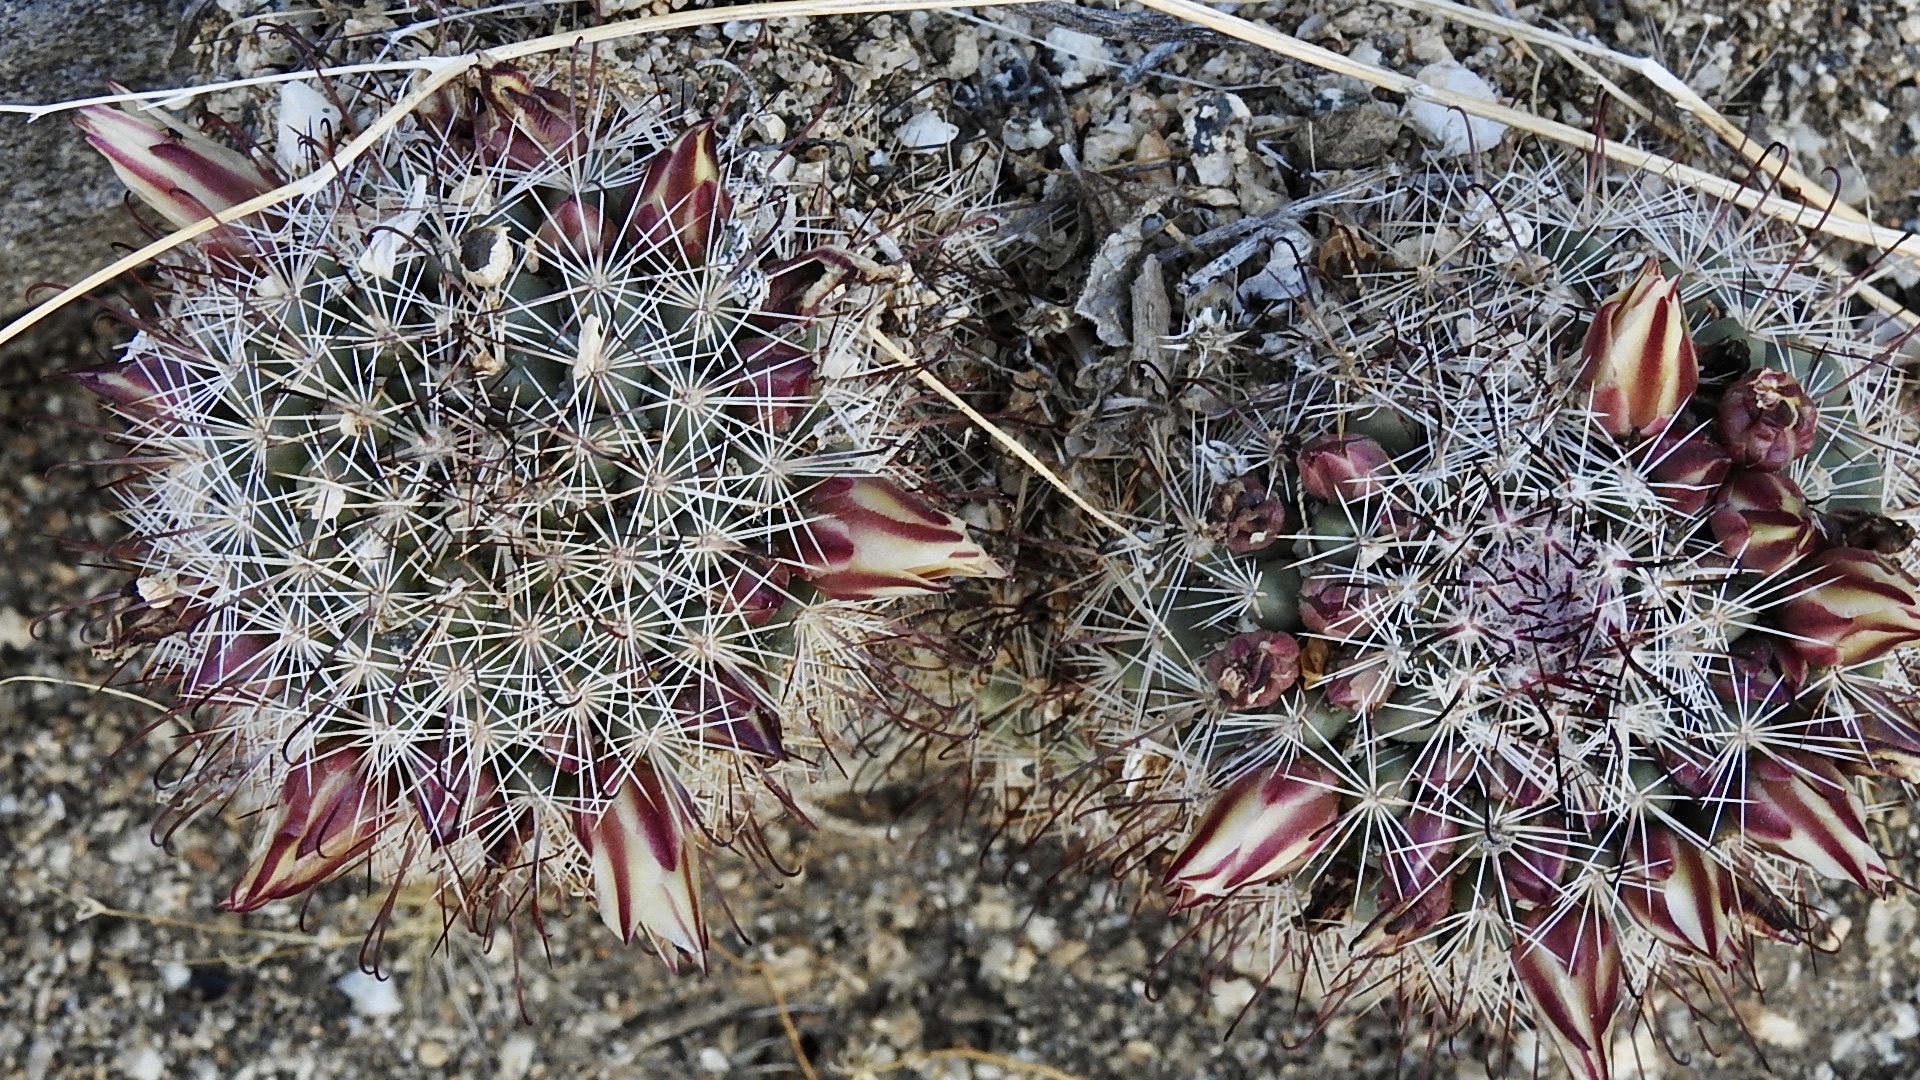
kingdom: Plantae
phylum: Tracheophyta
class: Magnoliopsida
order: Caryophyllales
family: Cactaceae
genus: Cochemiea
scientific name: Cochemiea dioica
